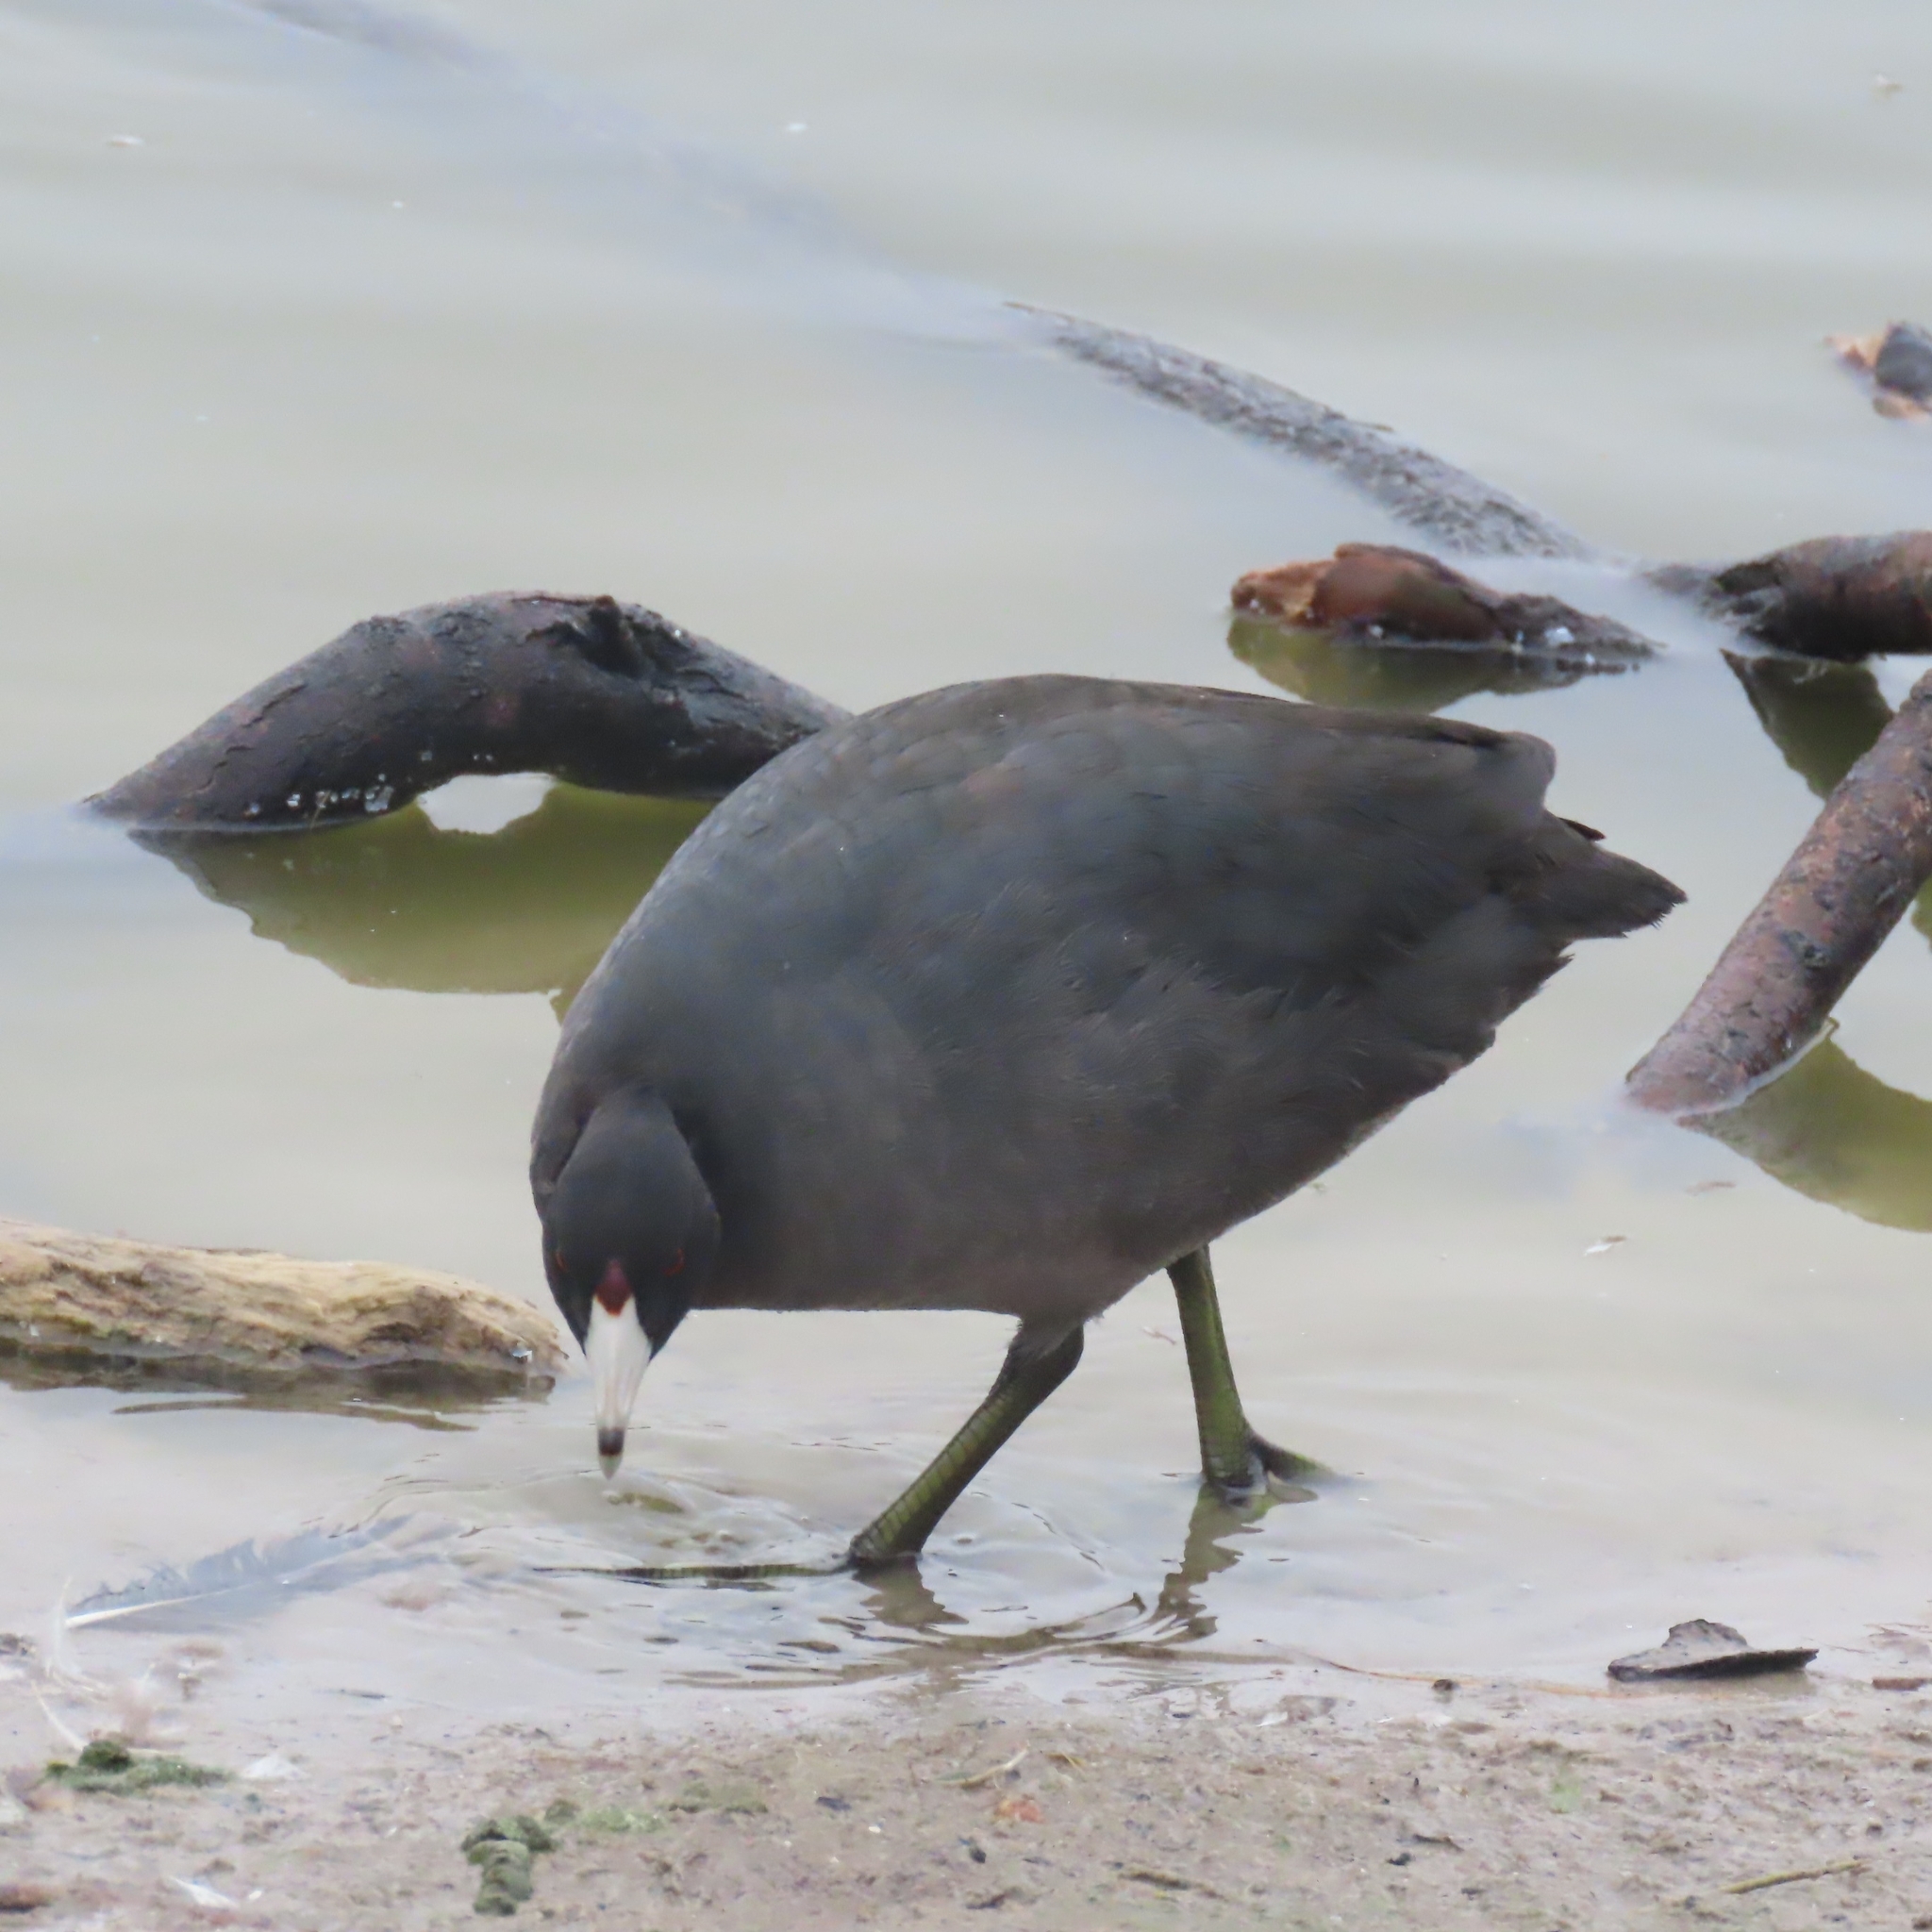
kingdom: Animalia
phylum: Chordata
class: Aves
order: Gruiformes
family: Rallidae
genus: Fulica
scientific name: Fulica americana
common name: American coot
